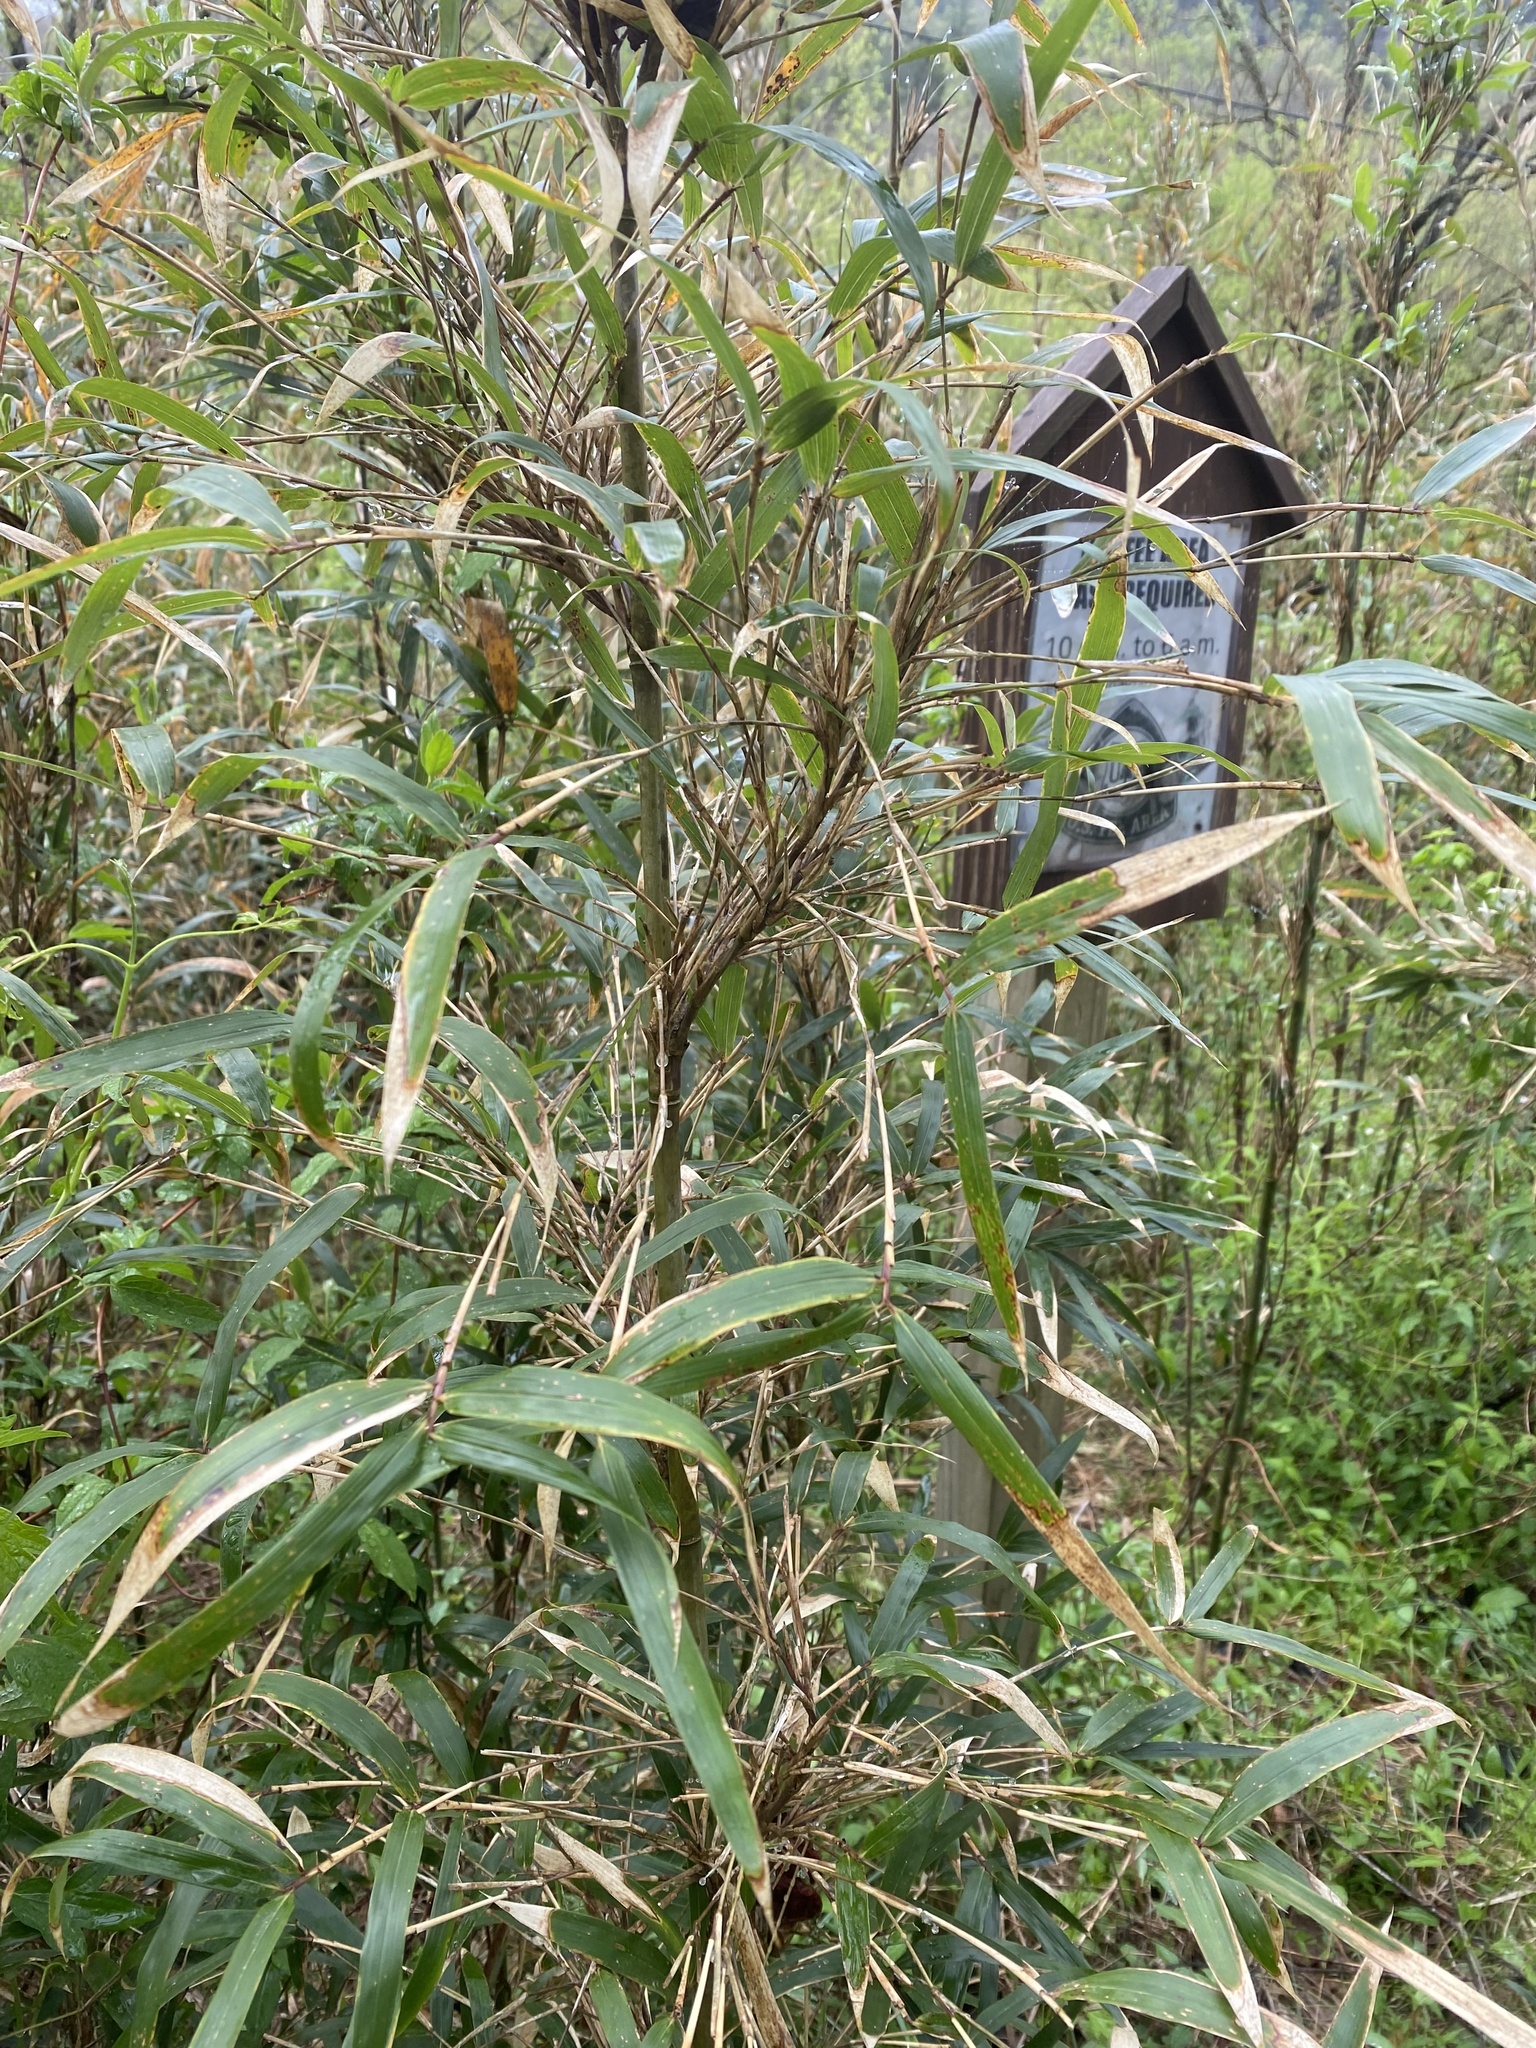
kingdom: Plantae
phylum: Tracheophyta
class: Liliopsida
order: Poales
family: Poaceae
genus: Arundinaria
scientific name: Arundinaria gigantea
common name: Giant cane
